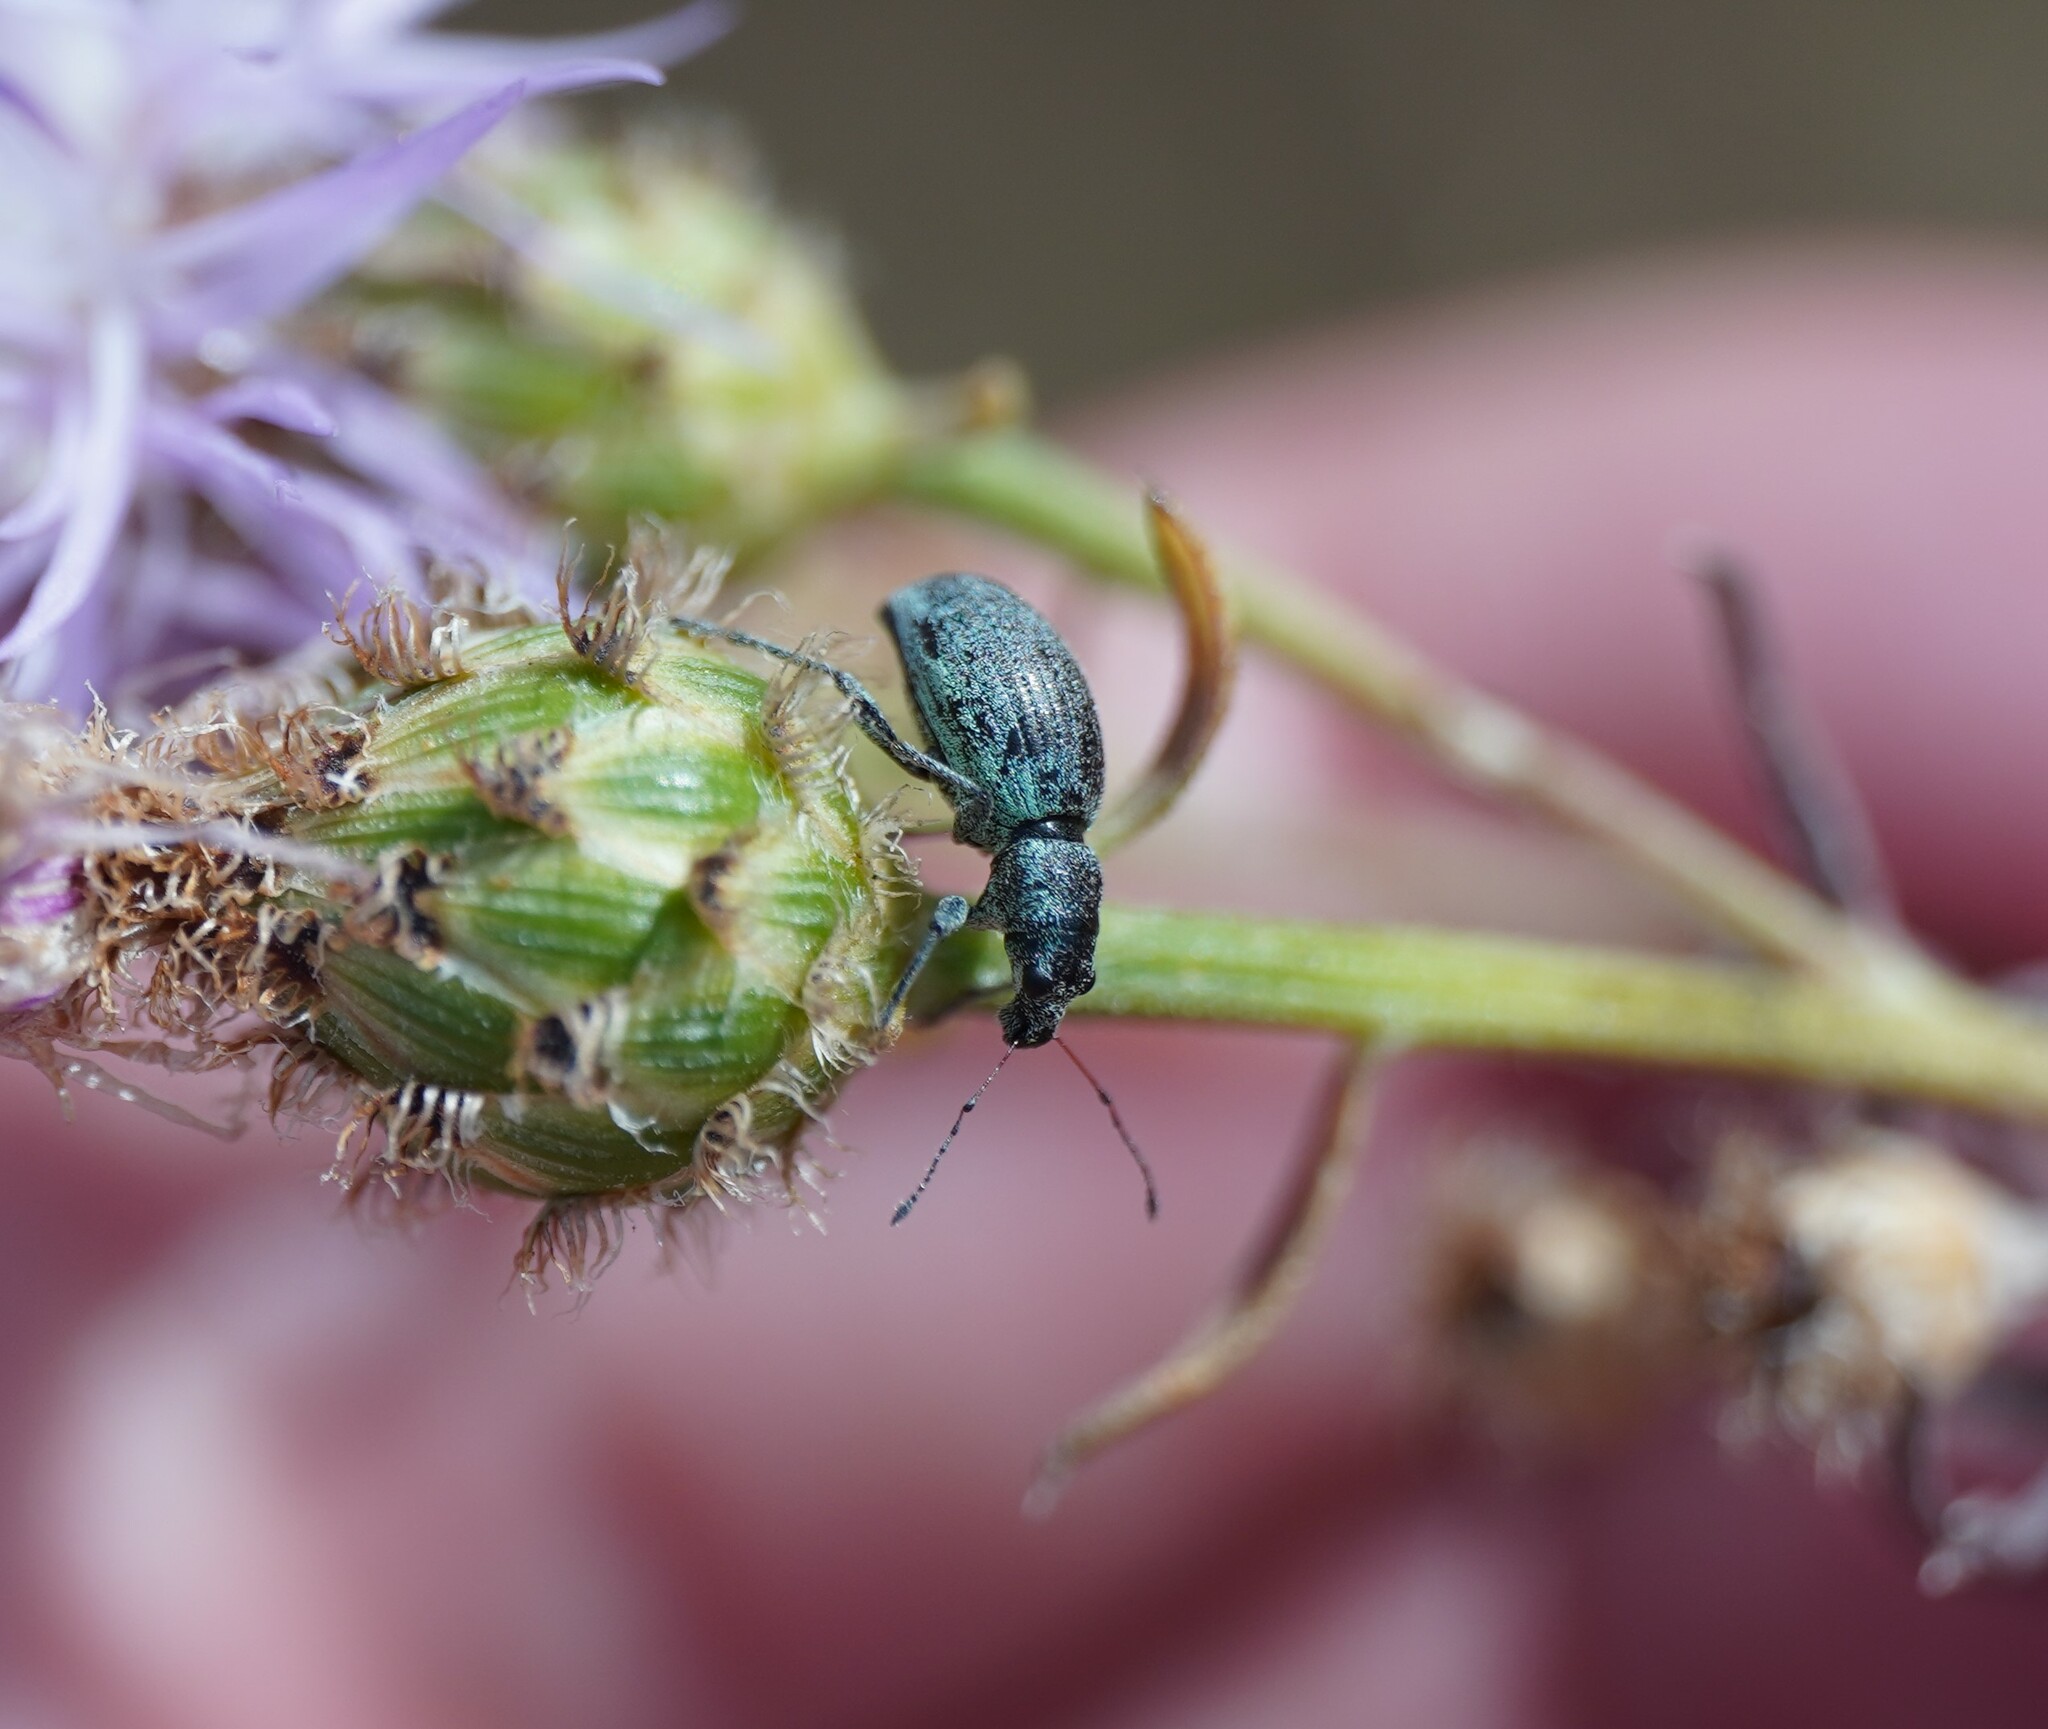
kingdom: Animalia
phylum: Arthropoda
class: Insecta
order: Coleoptera
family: Curculionidae
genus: Eusomus
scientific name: Eusomus ovulum
